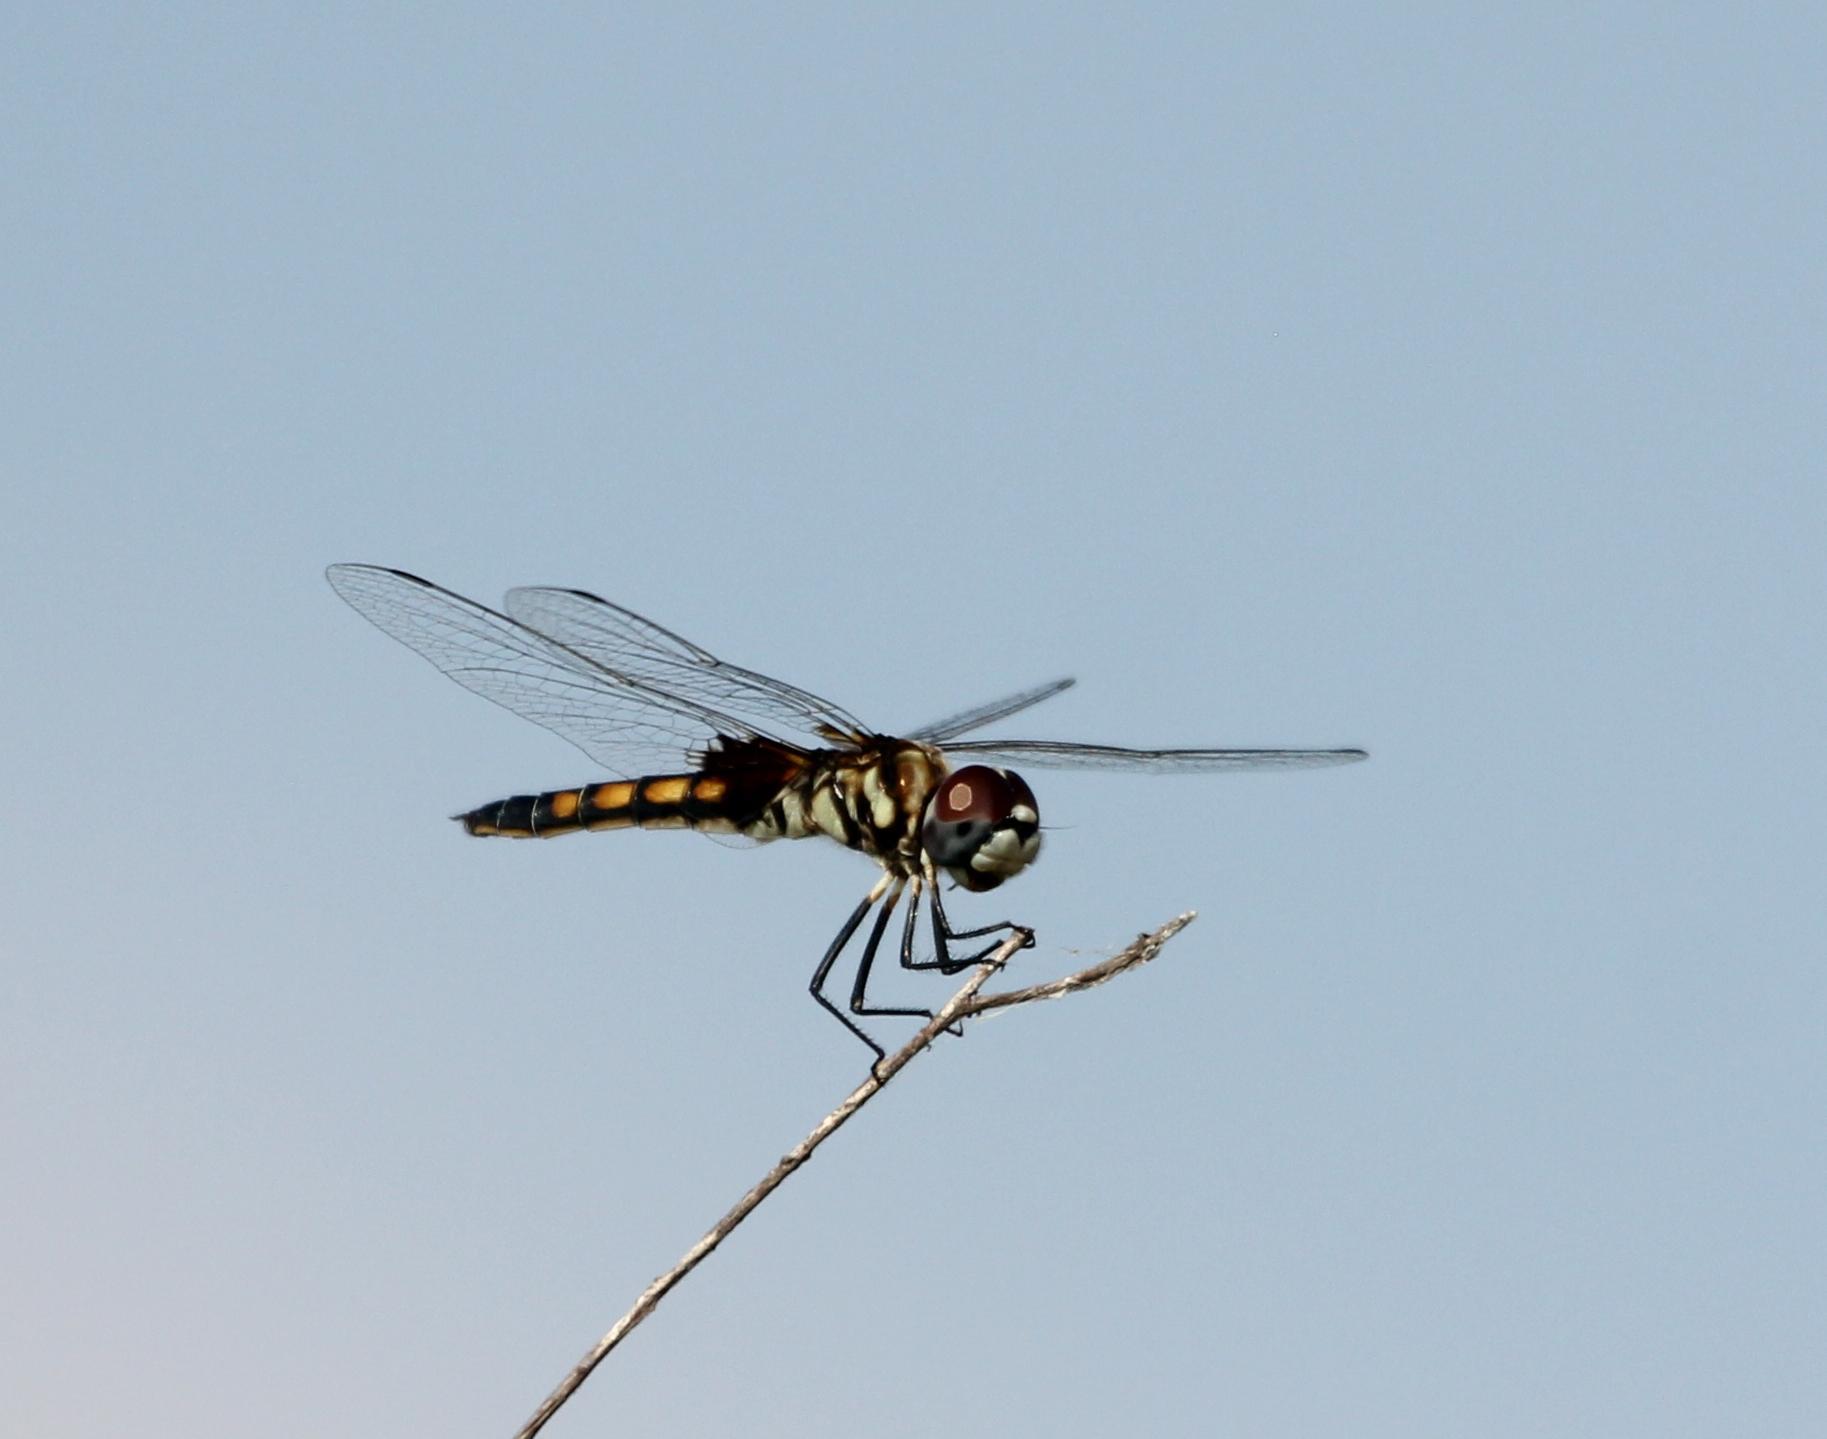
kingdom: Animalia
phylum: Arthropoda
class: Insecta
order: Odonata
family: Libellulidae
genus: Macrodiplax
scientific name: Macrodiplax balteata
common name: Marl pennant
